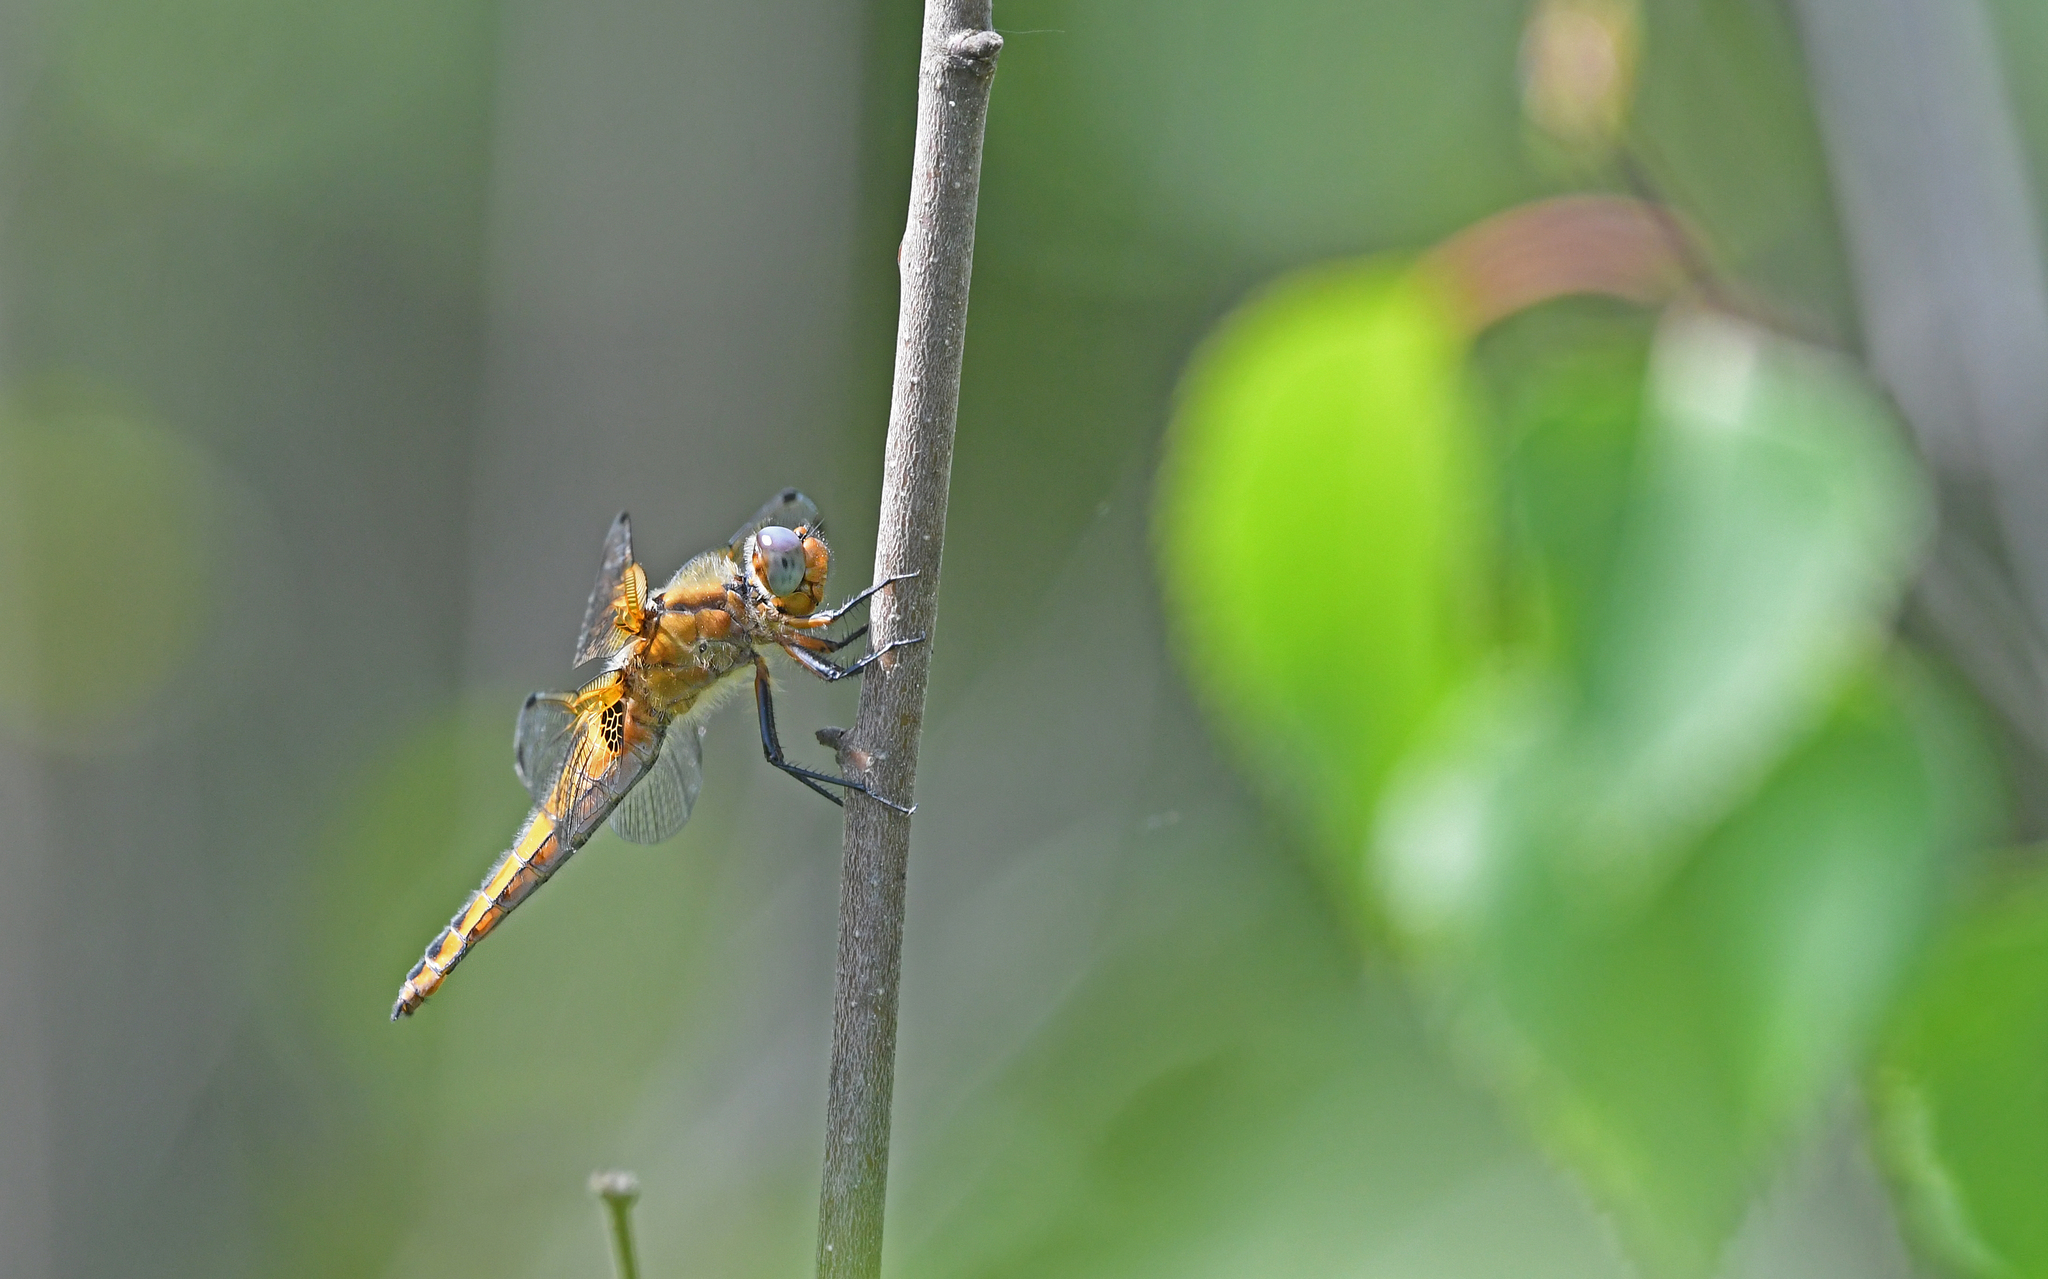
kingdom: Animalia
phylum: Arthropoda
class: Insecta
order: Odonata
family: Libellulidae
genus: Libellula
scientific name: Libellula fulva
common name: Blue chaser
